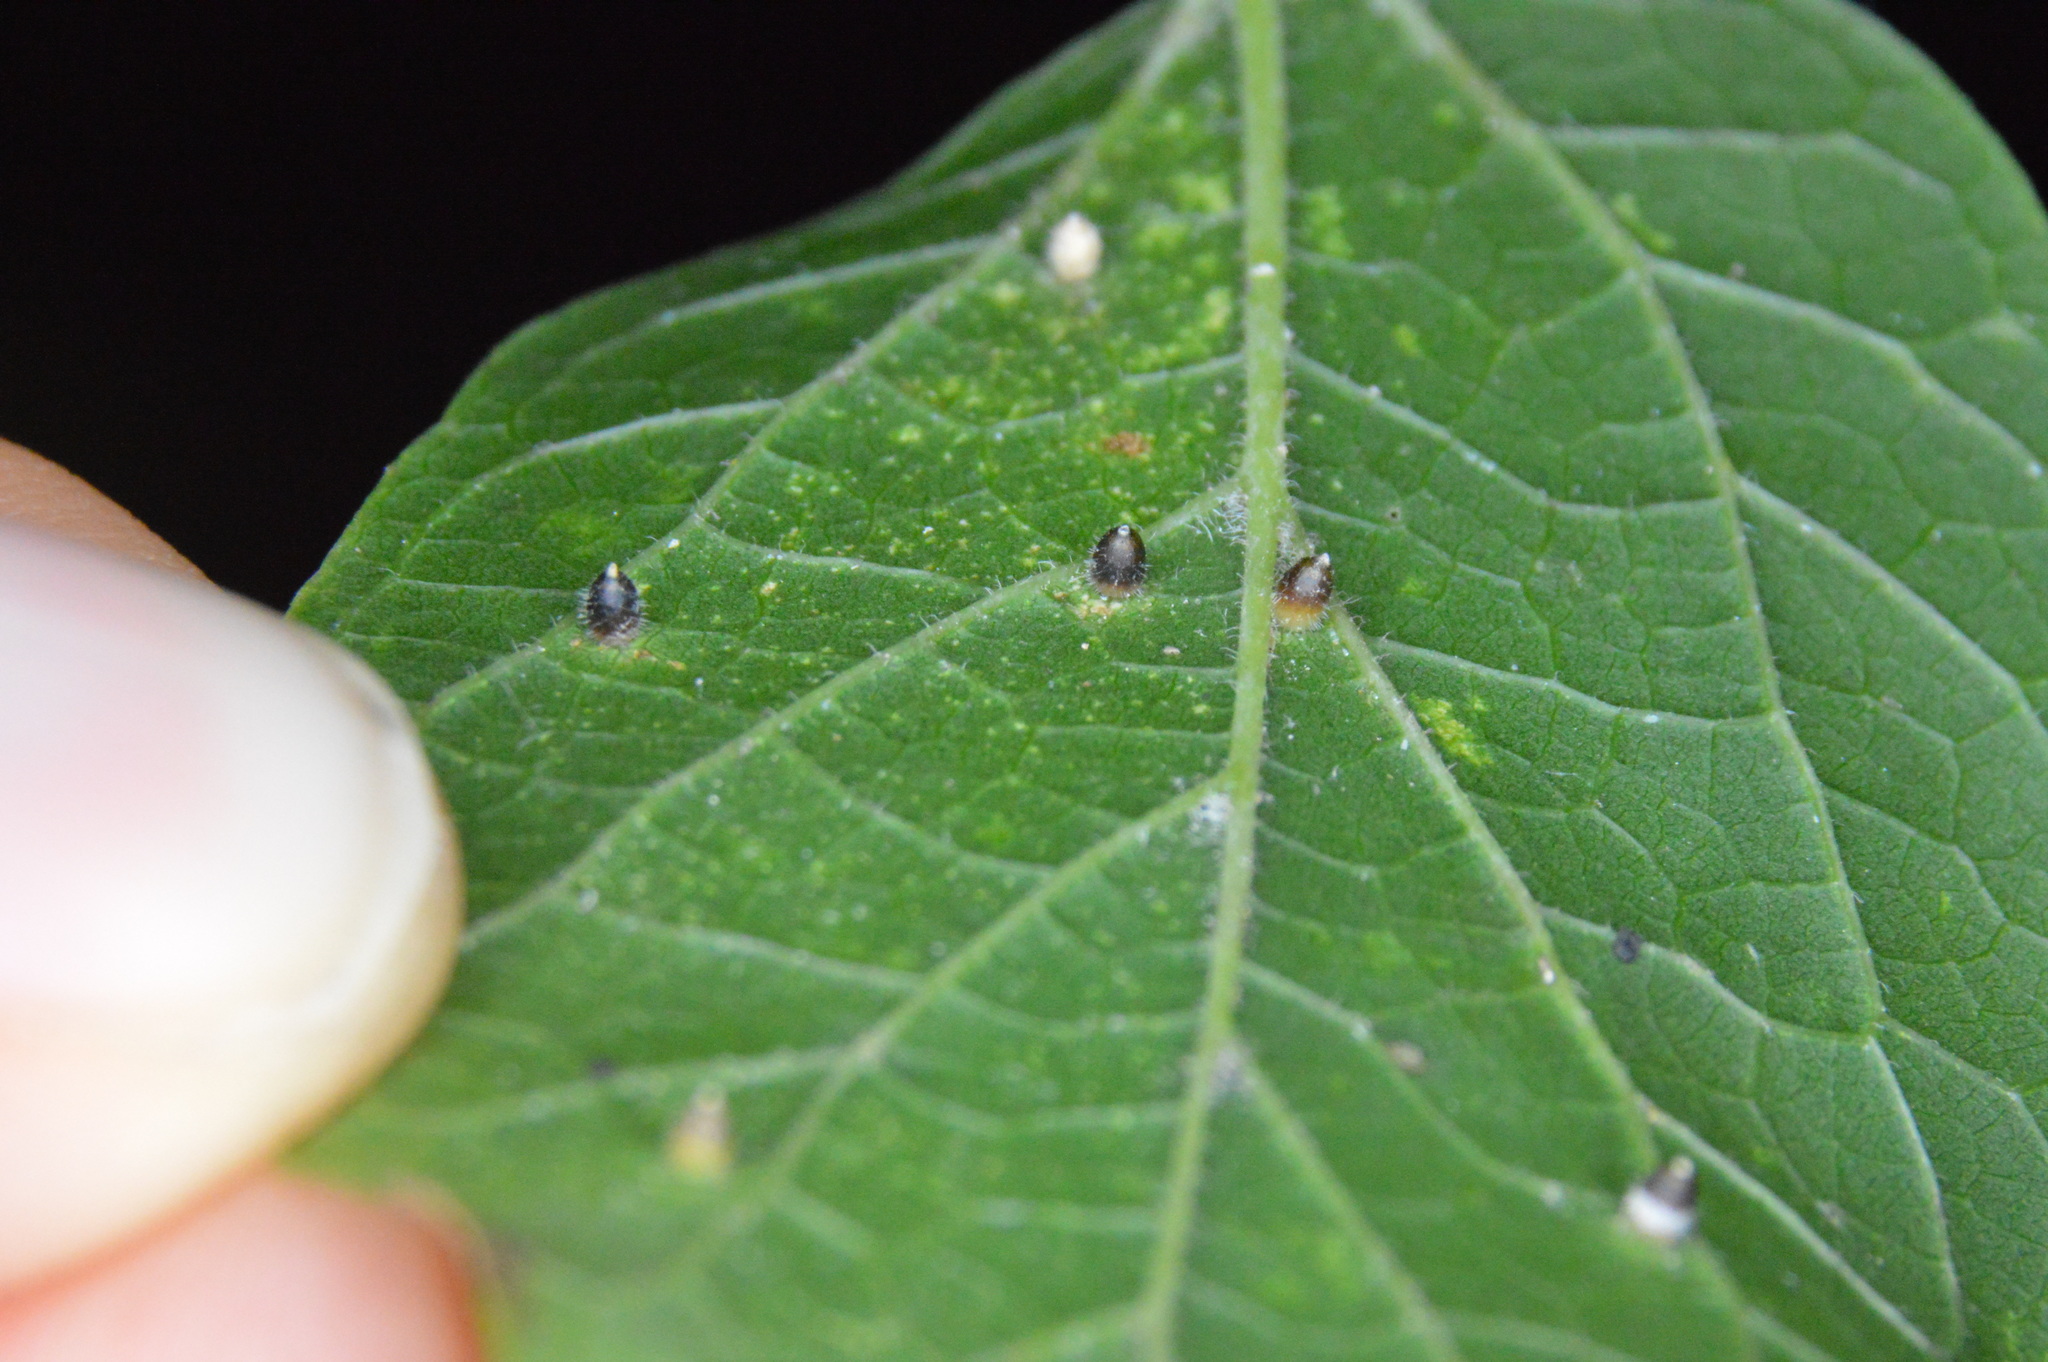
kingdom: Animalia
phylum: Arthropoda
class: Insecta
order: Diptera
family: Cecidomyiidae
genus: Celticecis
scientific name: Celticecis cupiformis
